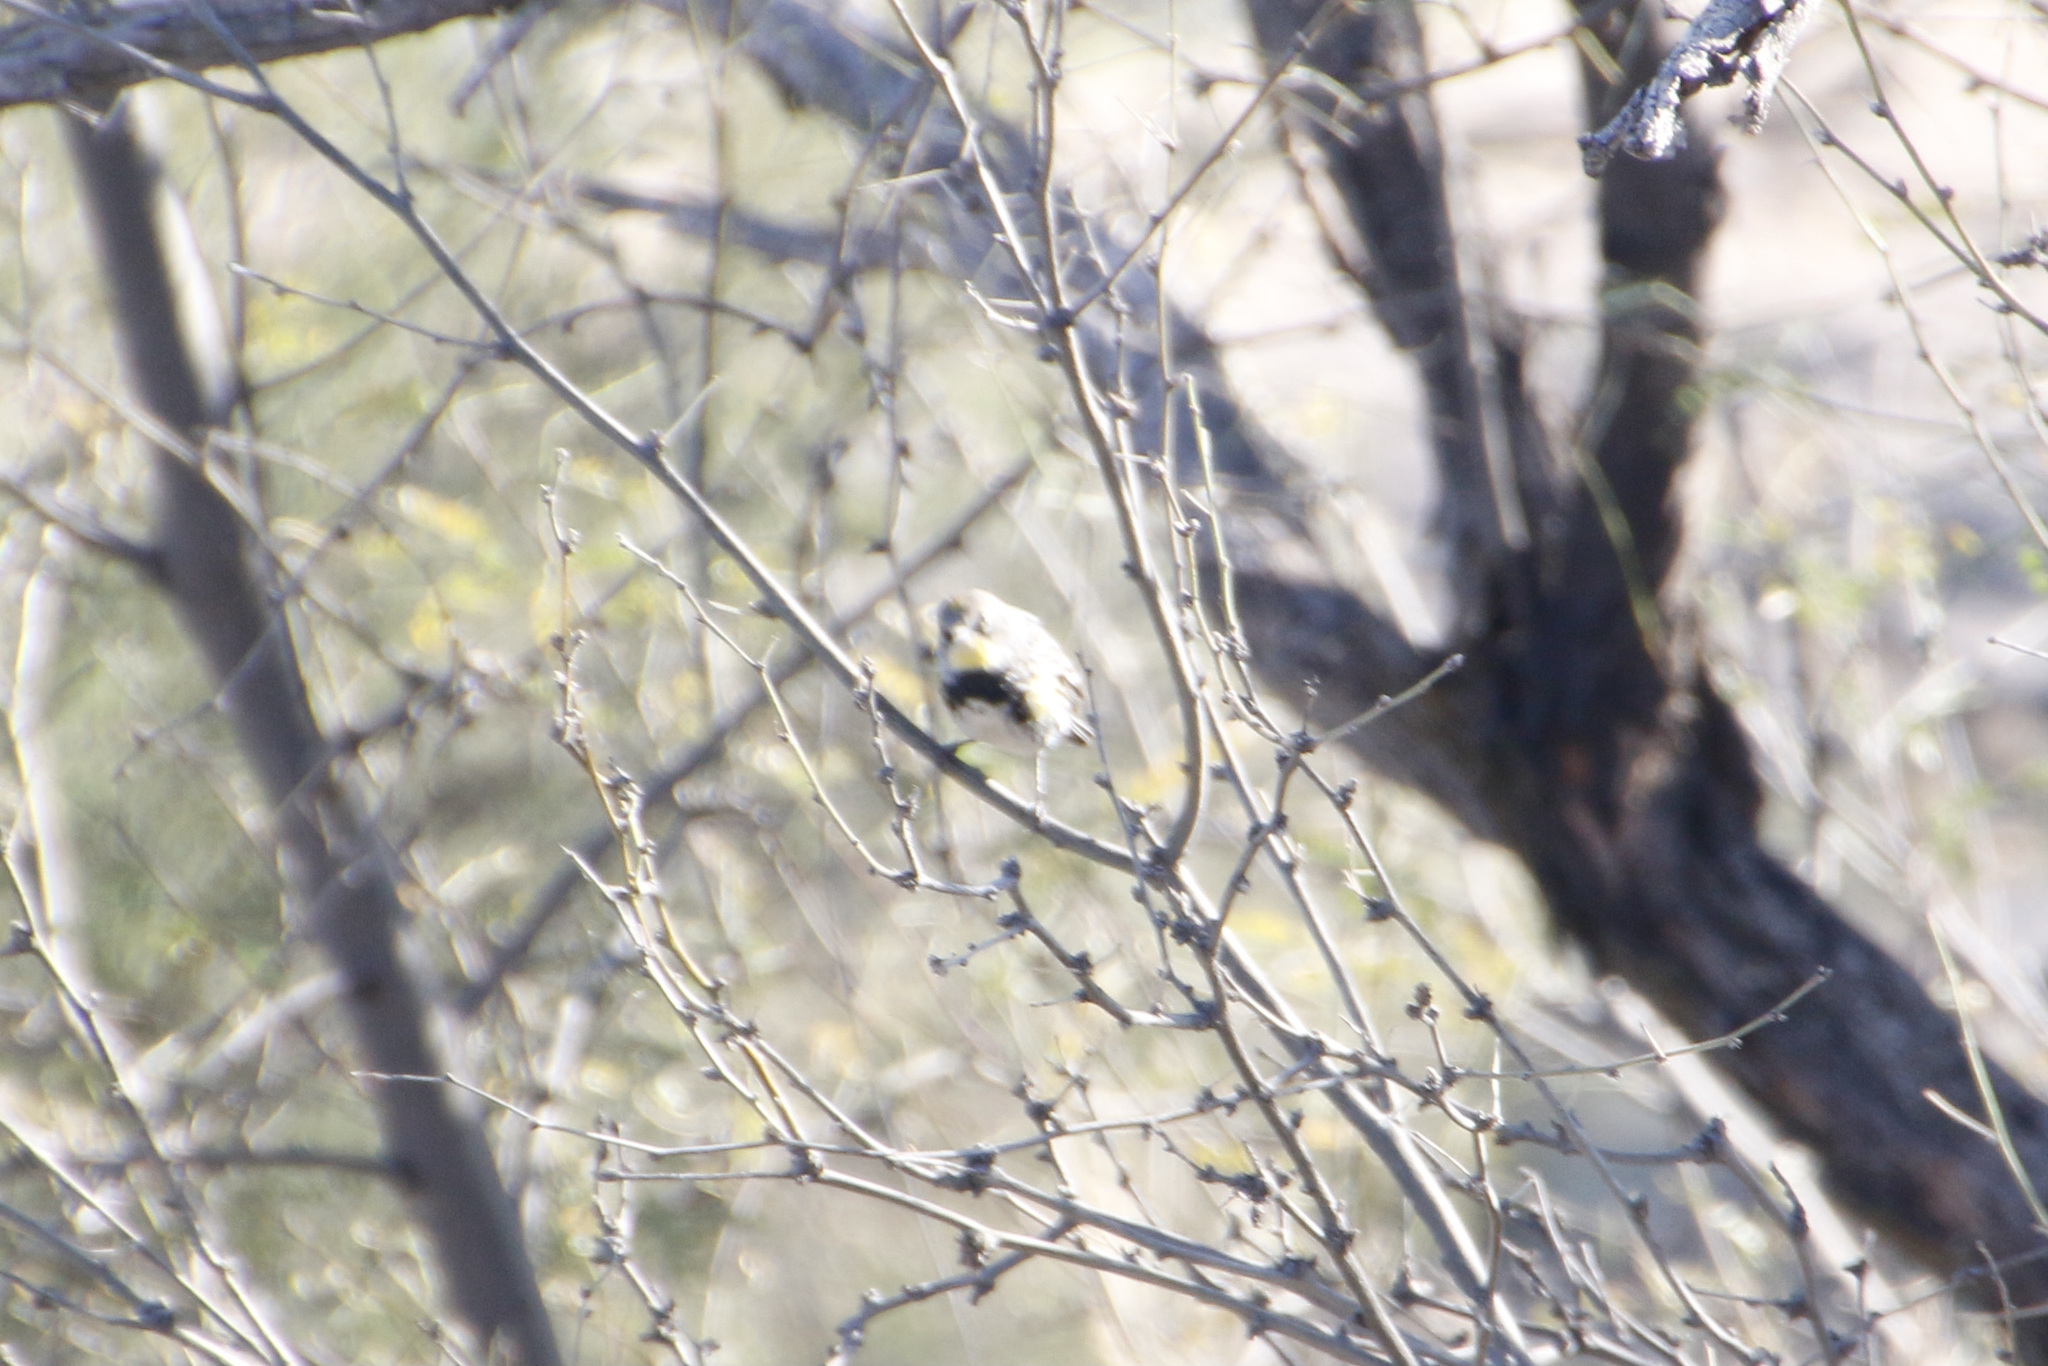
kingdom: Animalia
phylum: Chordata
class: Aves
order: Passeriformes
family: Parulidae
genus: Setophaga
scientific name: Setophaga auduboni
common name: Audubon's warbler
